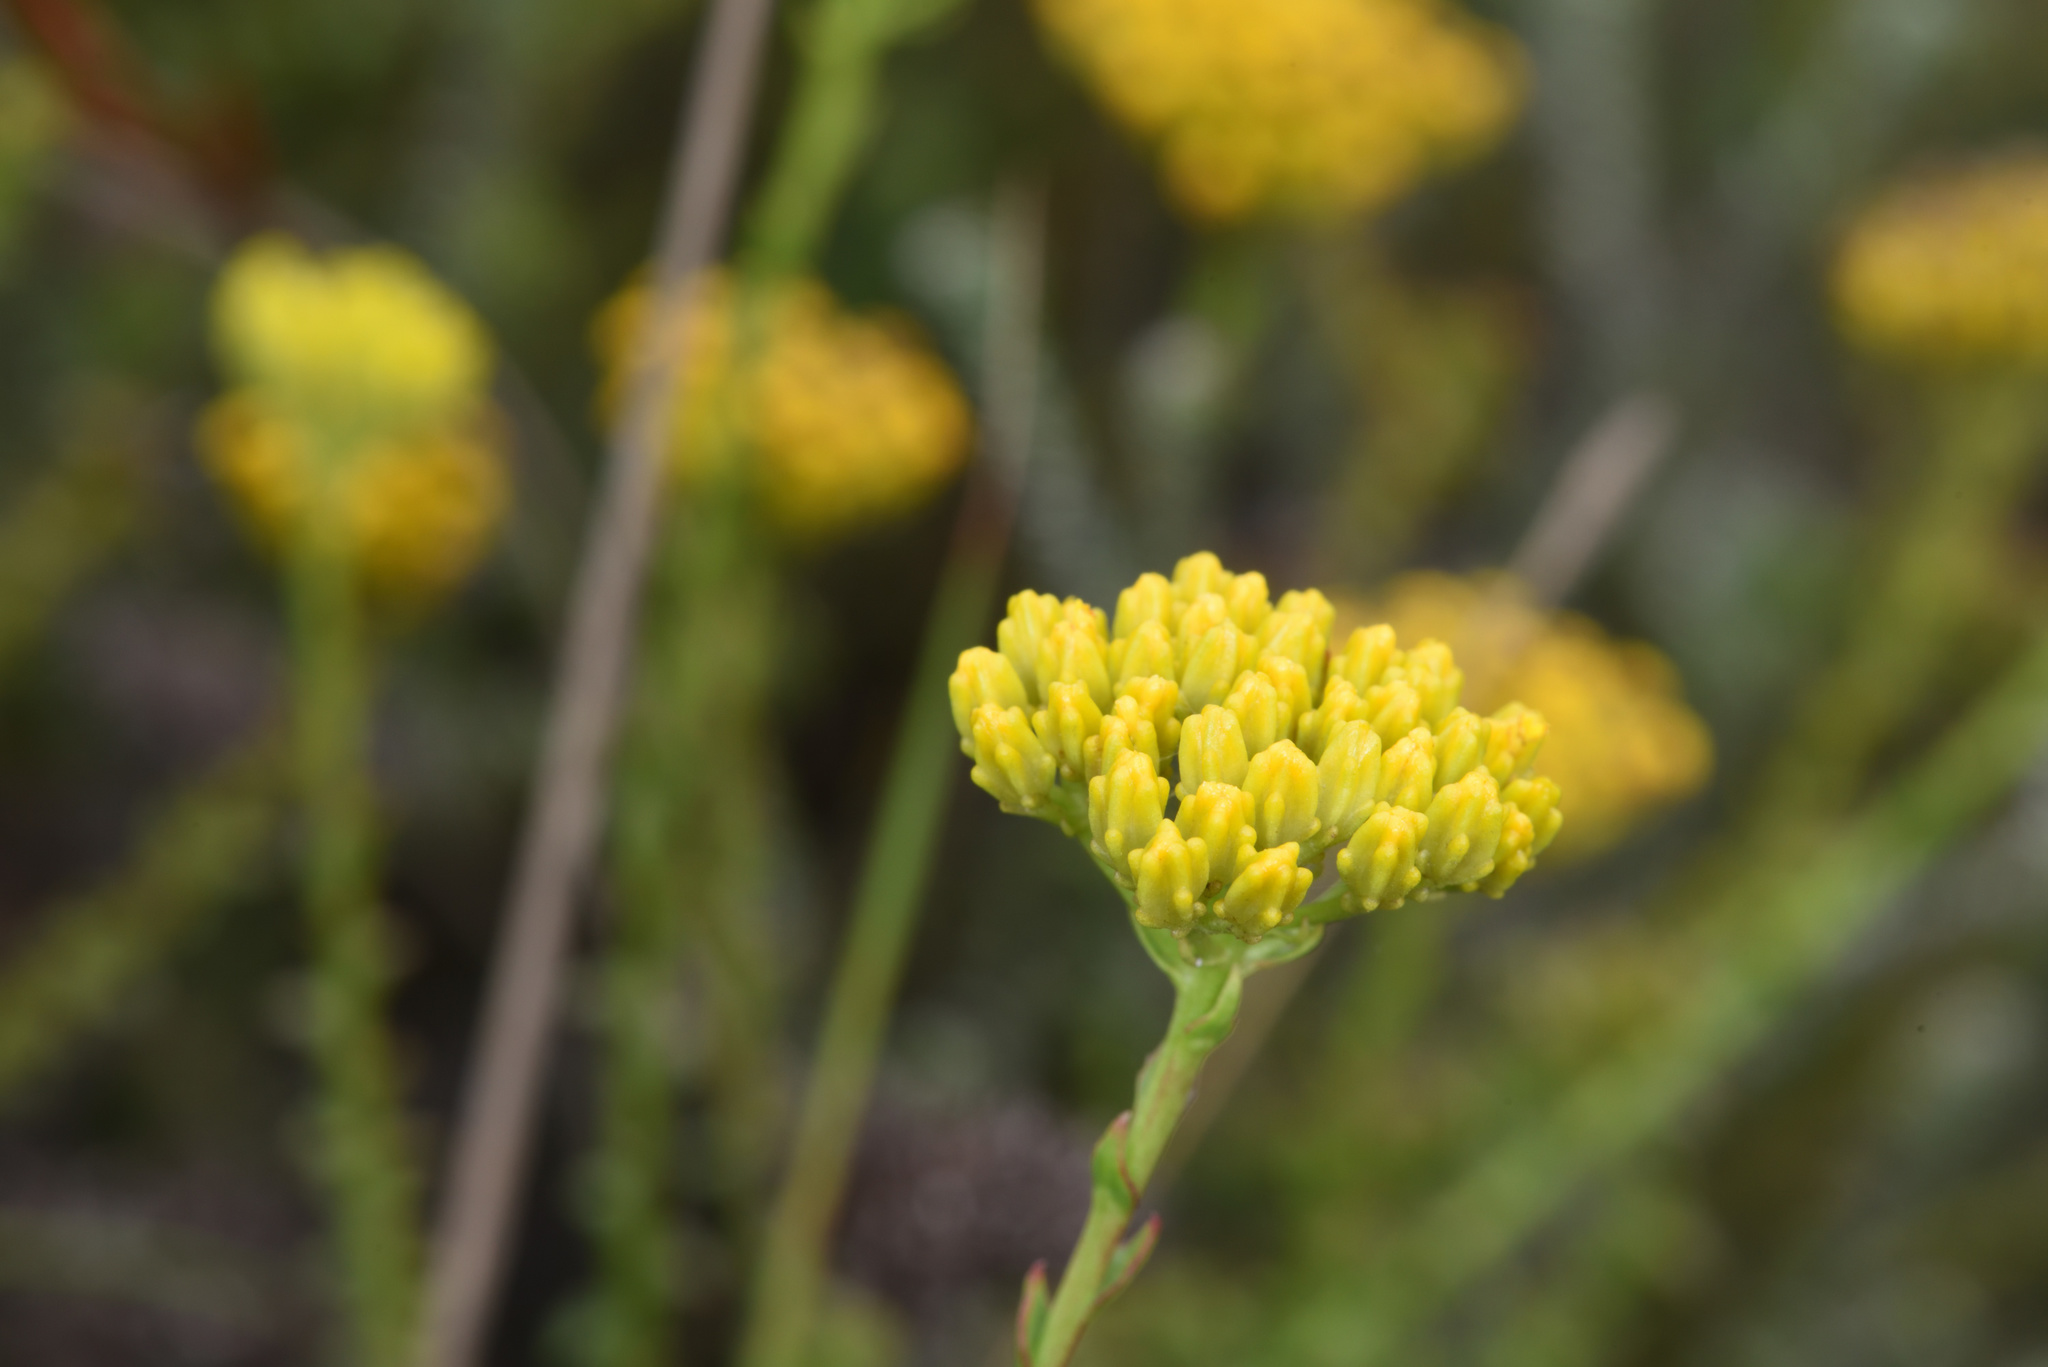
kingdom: Plantae
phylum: Tracheophyta
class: Magnoliopsida
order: Asterales
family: Asteraceae
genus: Athanasia
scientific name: Athanasia dentata
